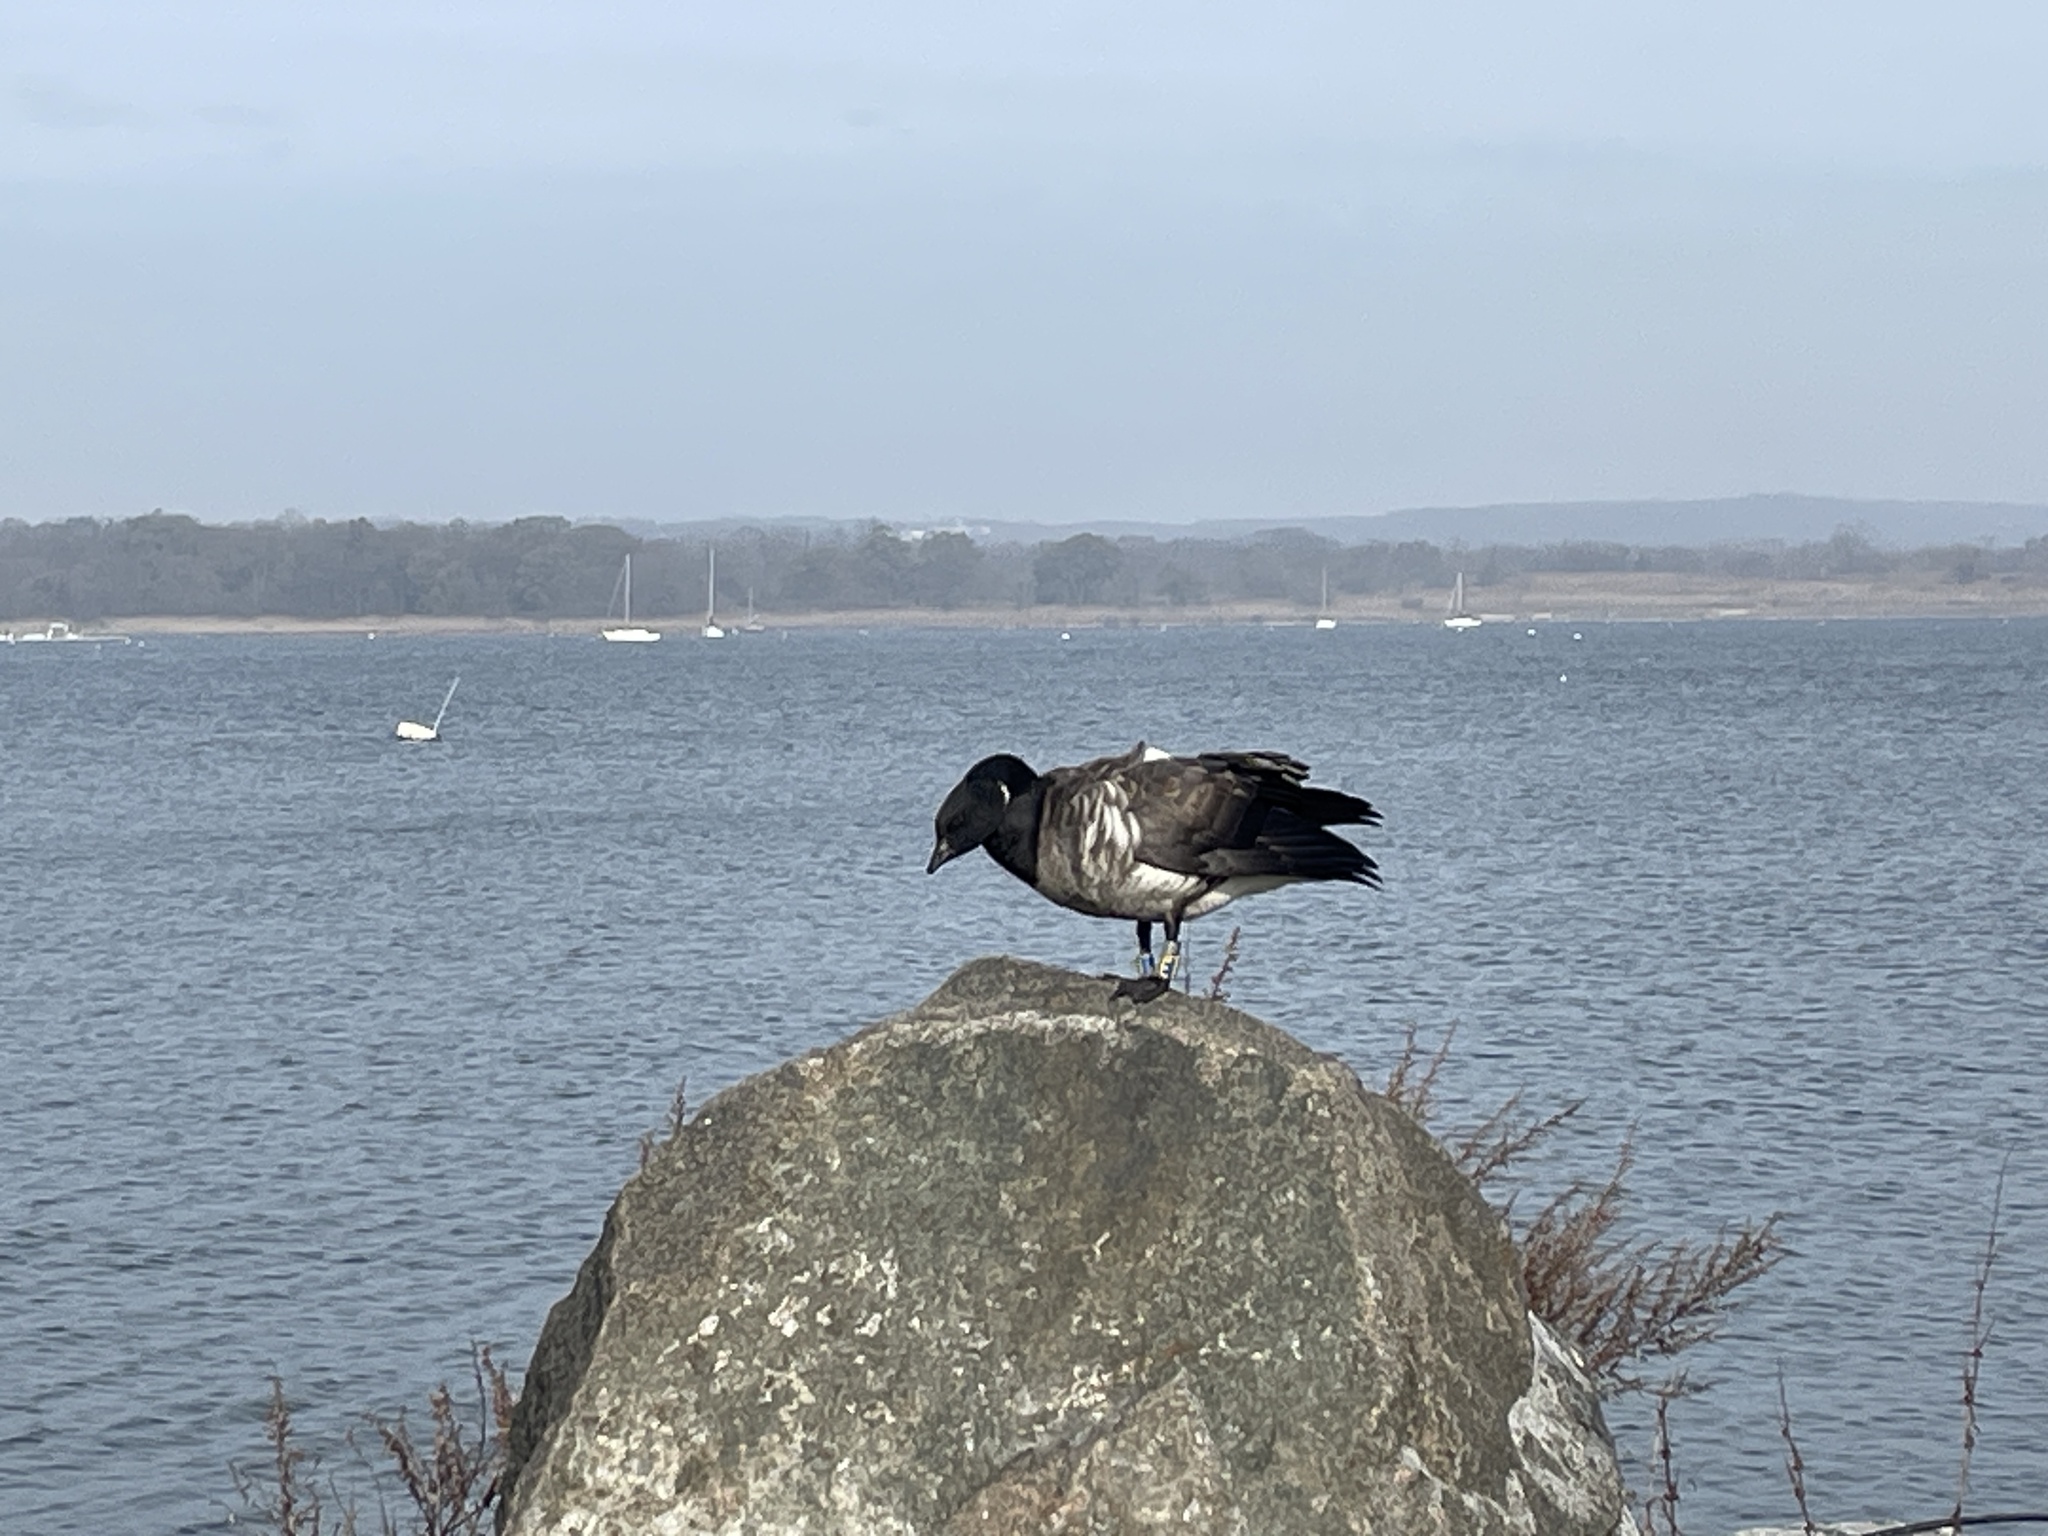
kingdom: Animalia
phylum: Chordata
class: Aves
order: Anseriformes
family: Anatidae
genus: Branta
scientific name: Branta bernicla
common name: Brant goose
